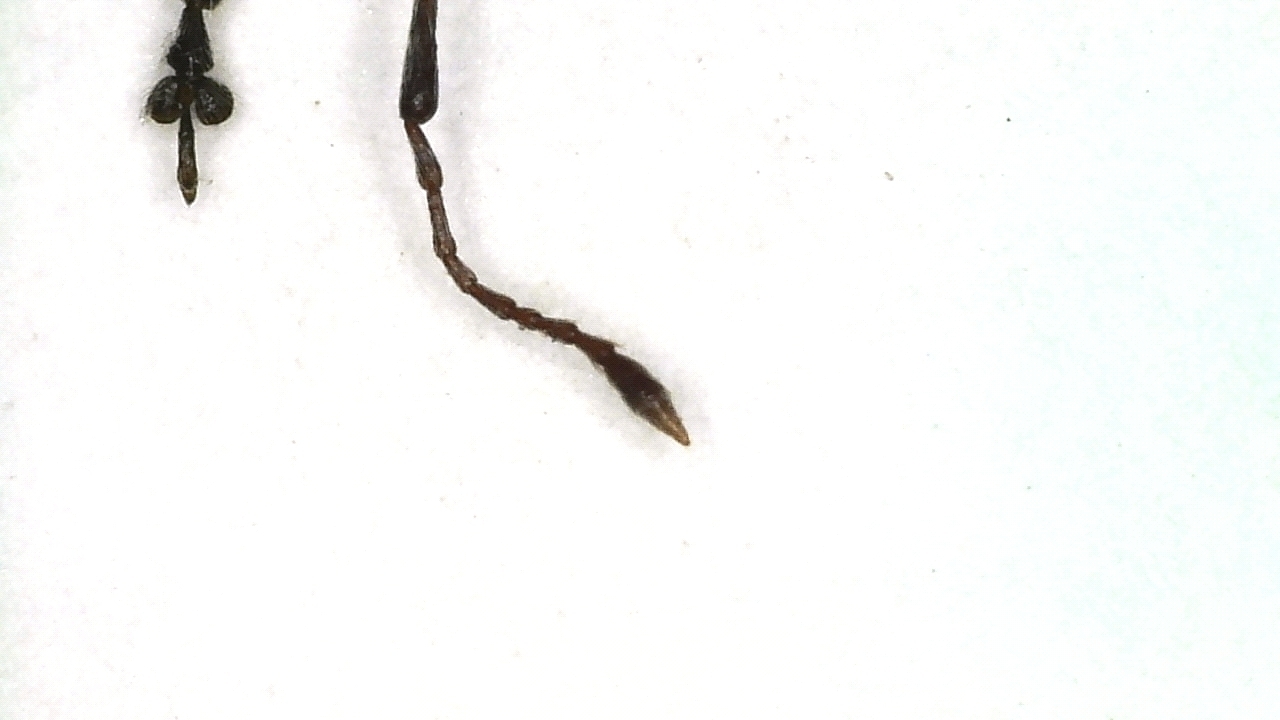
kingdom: Animalia
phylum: Arthropoda
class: Insecta
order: Coleoptera
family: Curculionidae
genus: Phyllobius
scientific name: Phyllobius fessus
